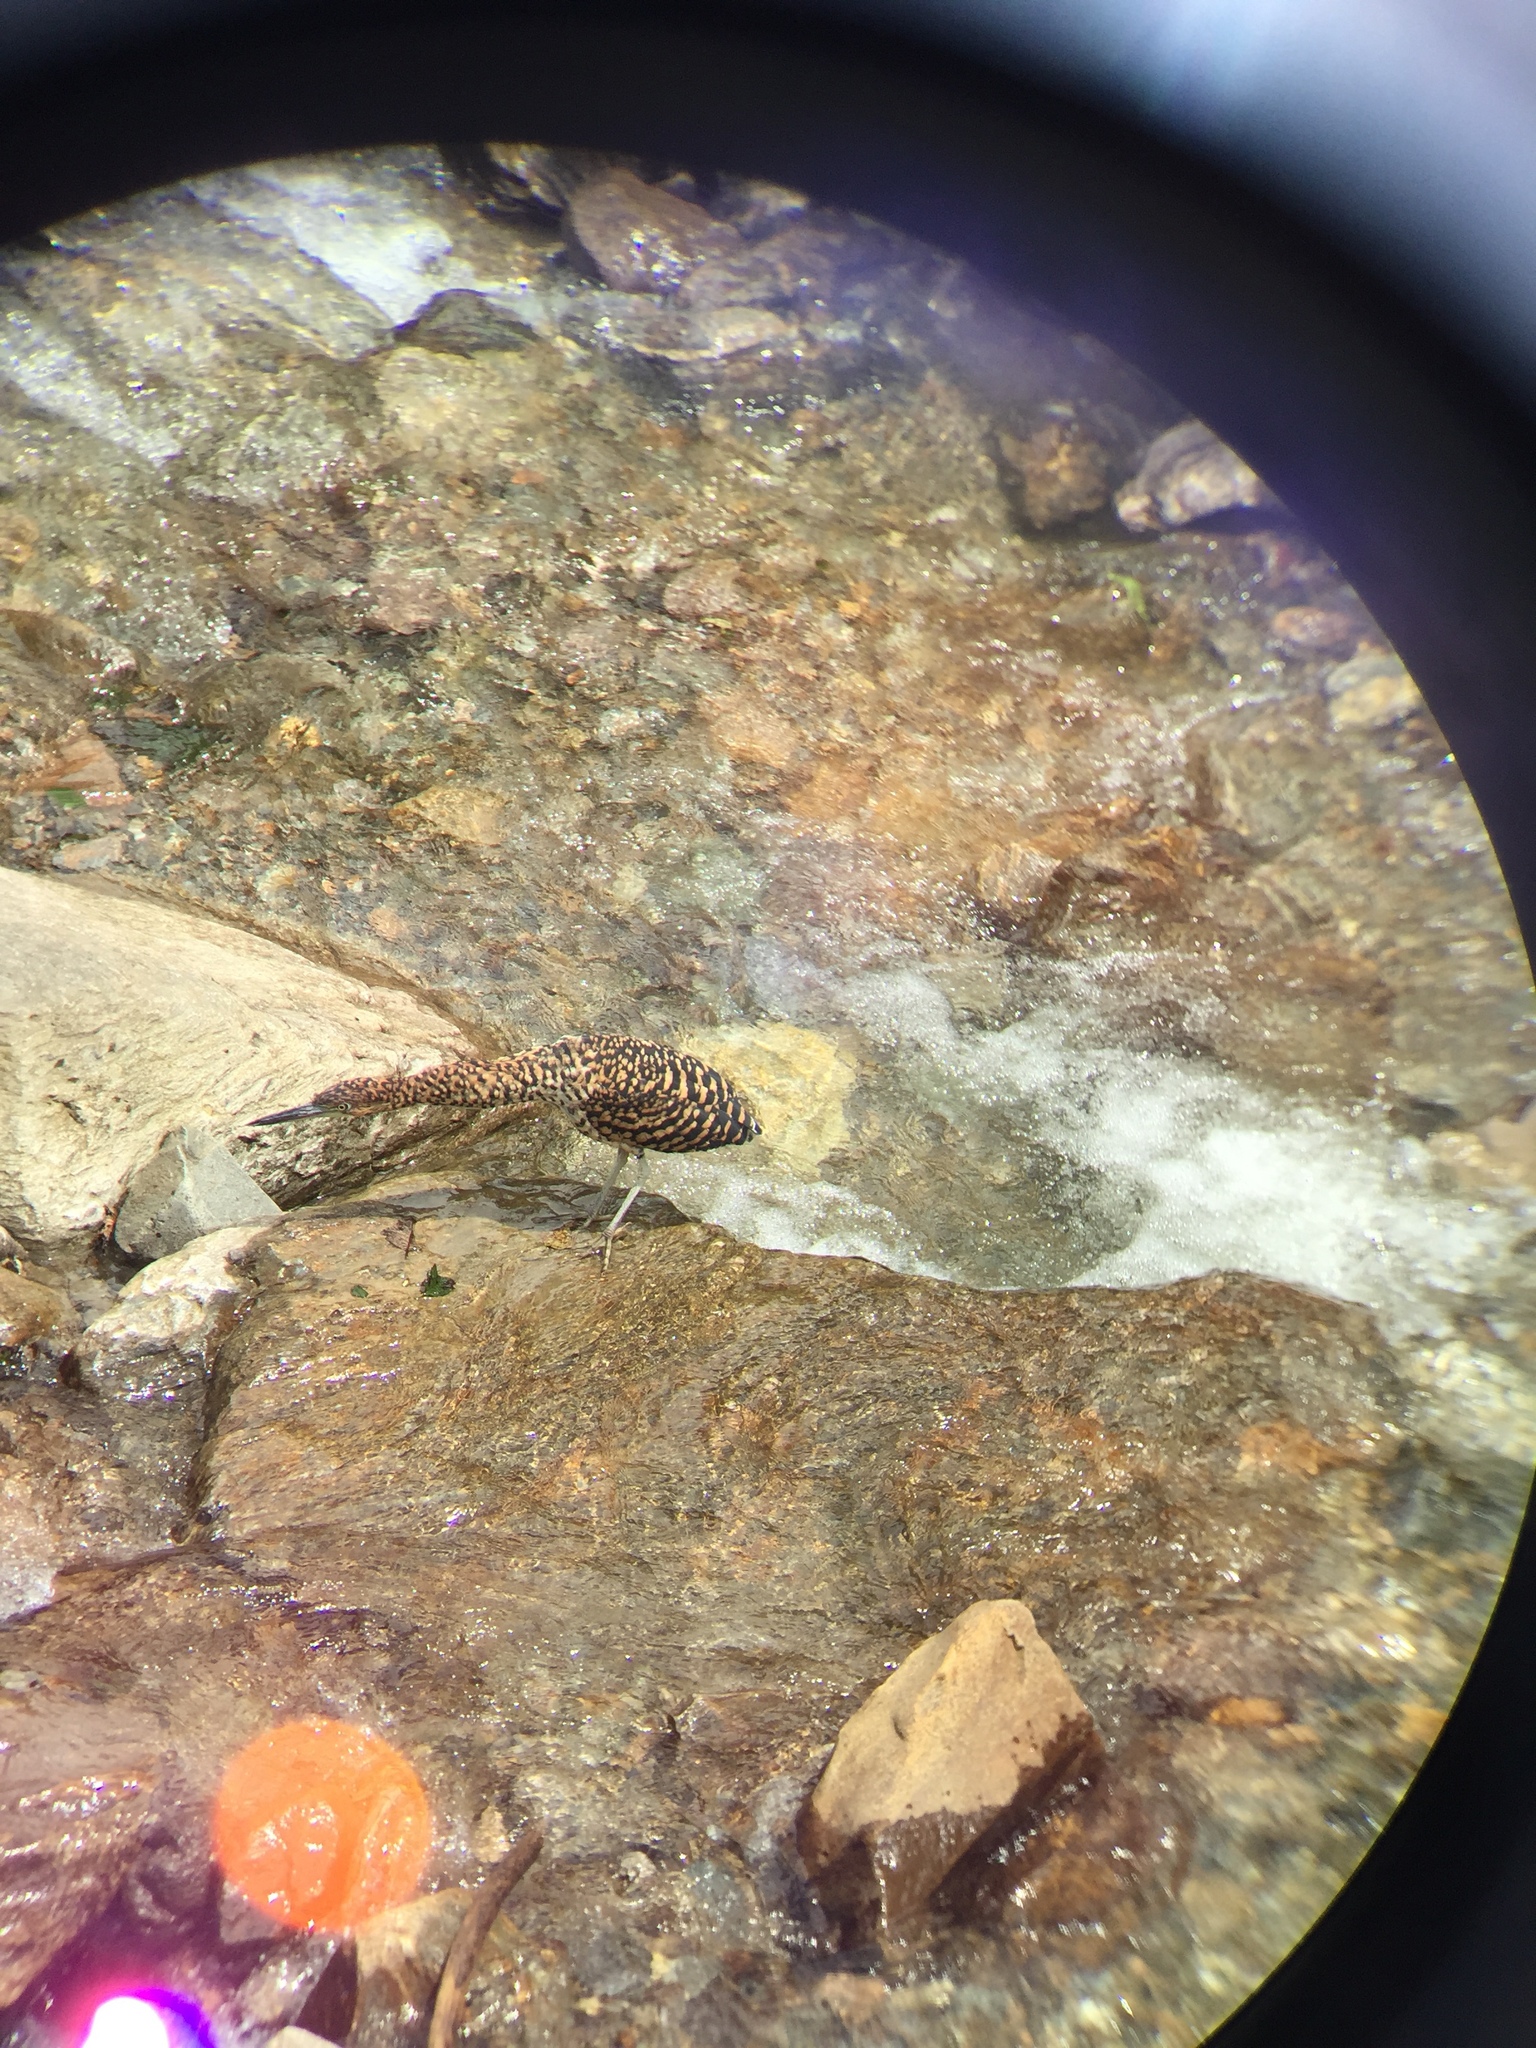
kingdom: Animalia
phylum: Chordata
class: Aves
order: Pelecaniformes
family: Ardeidae
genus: Tigrisoma
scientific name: Tigrisoma fasciatum
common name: Fasciated tiger-heron
